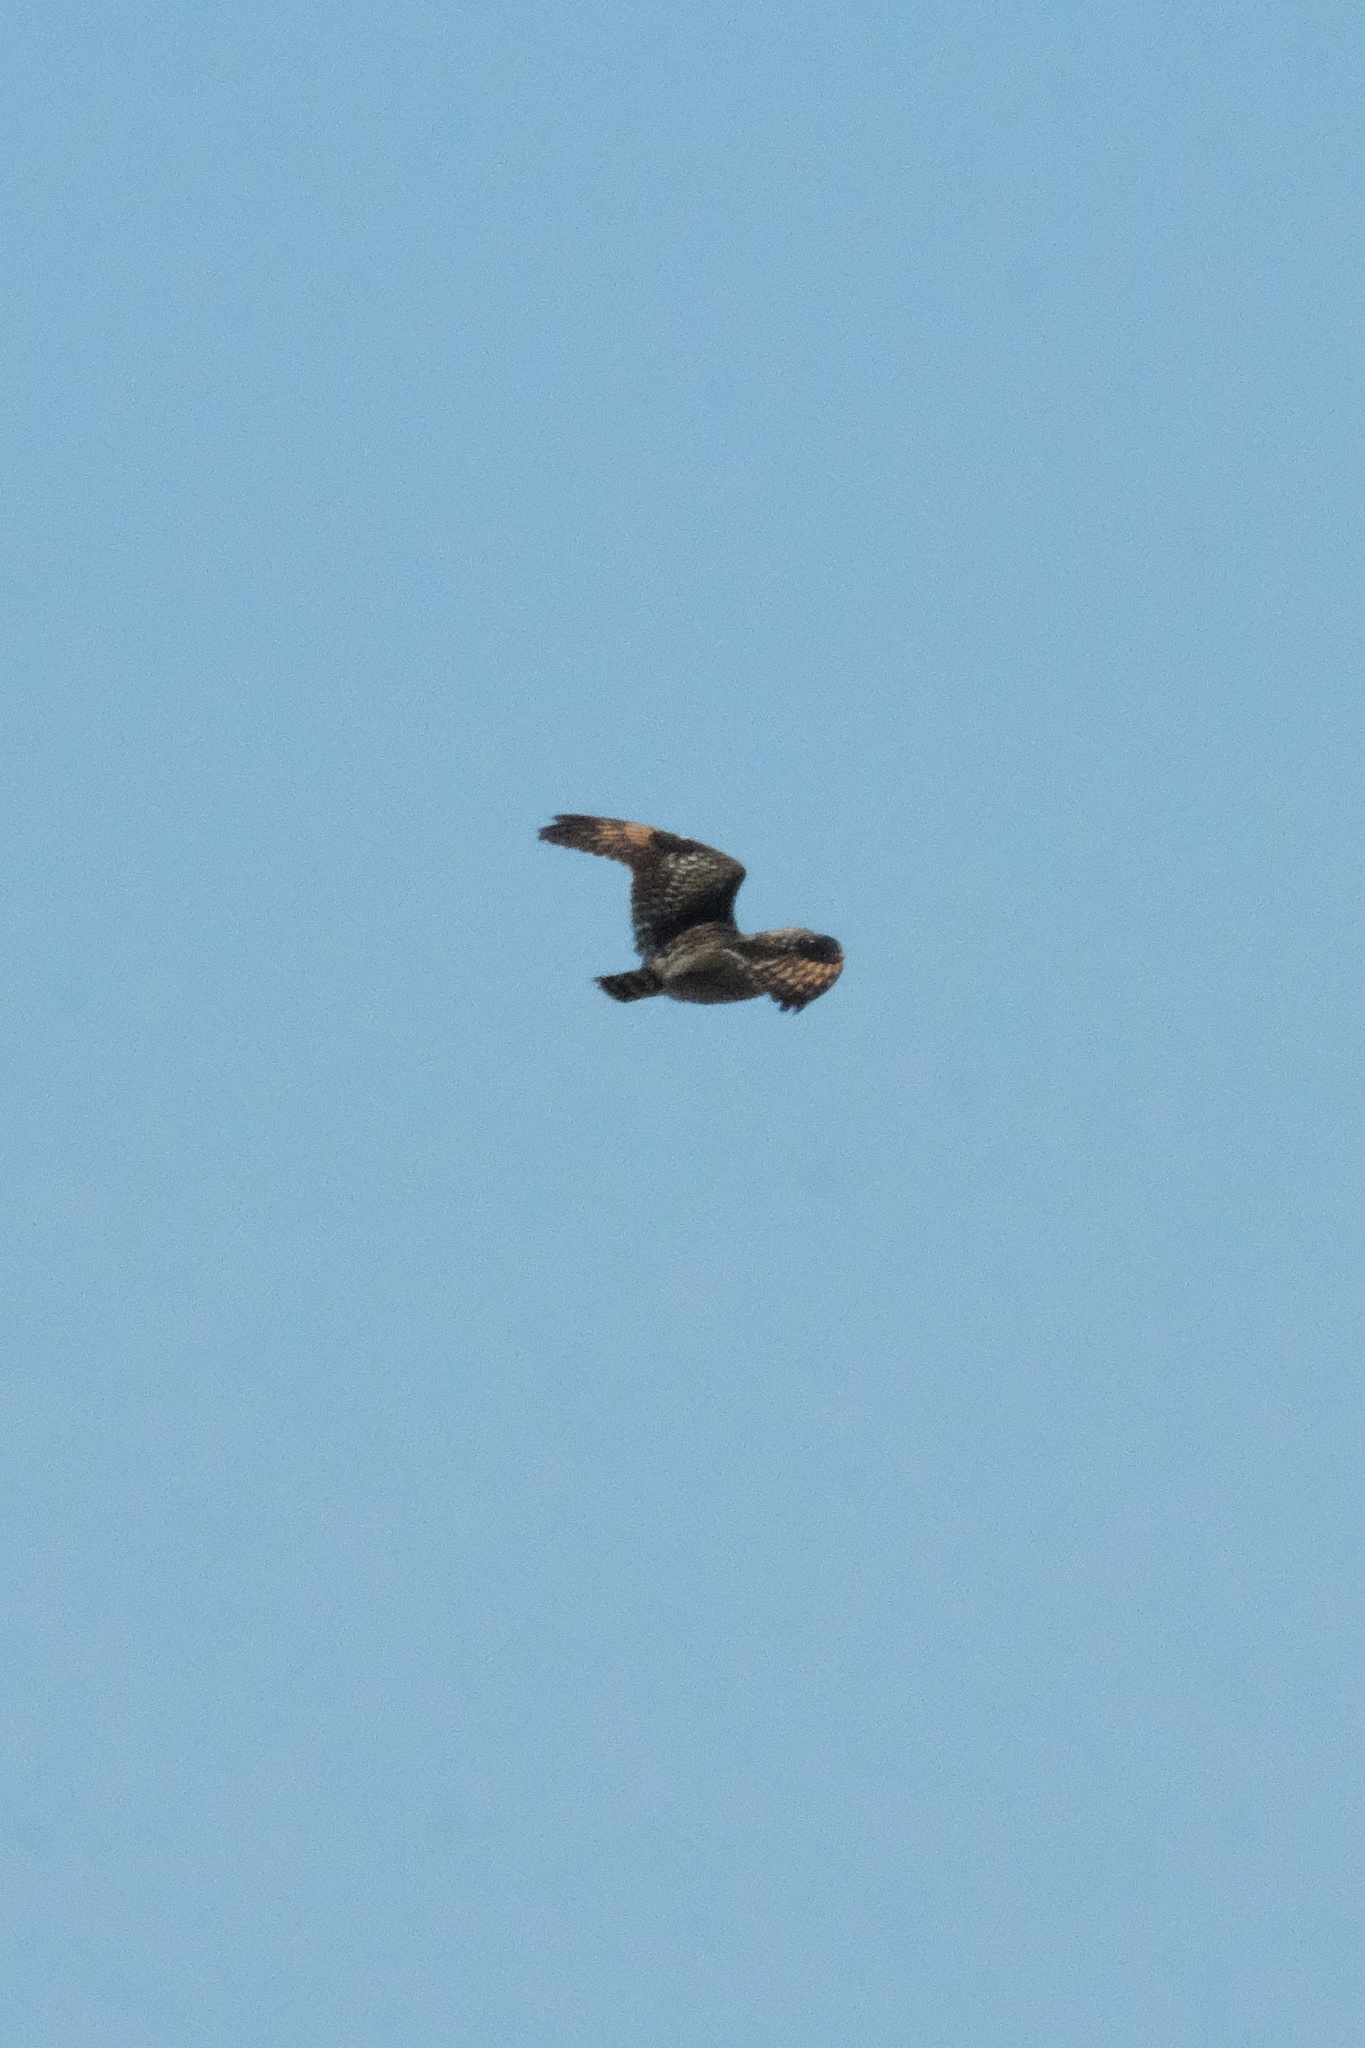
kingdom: Animalia
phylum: Chordata
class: Aves
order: Strigiformes
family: Strigidae
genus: Asio
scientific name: Asio flammeus
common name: Short-eared owl
